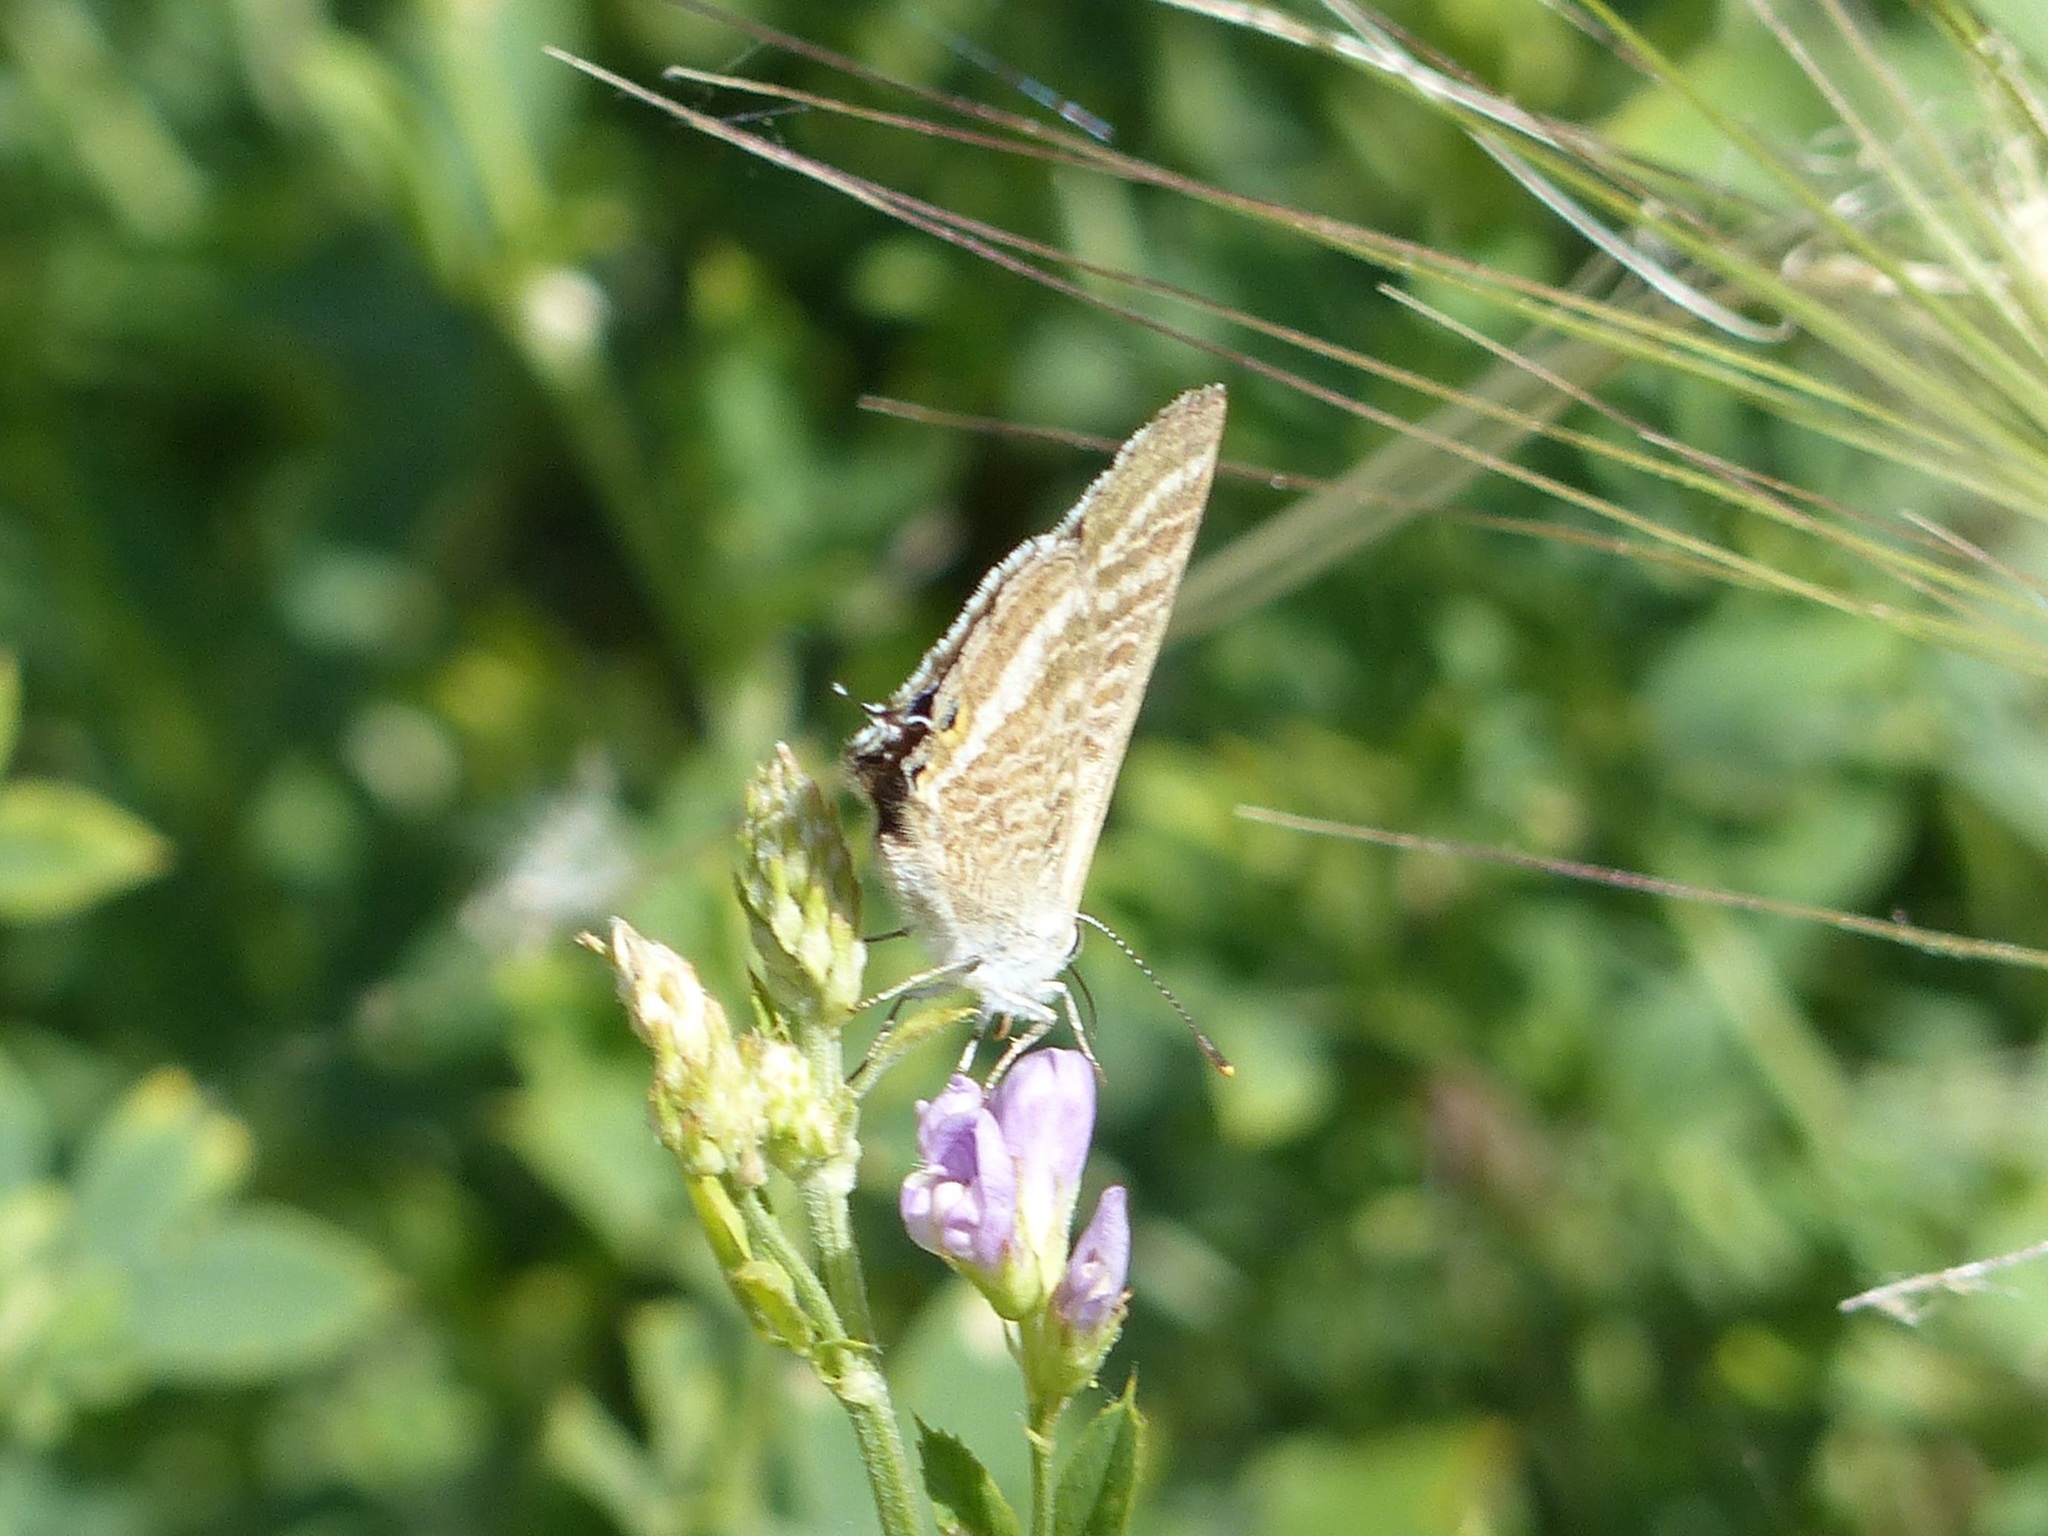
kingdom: Animalia
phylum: Arthropoda
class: Insecta
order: Lepidoptera
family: Lycaenidae
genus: Lampides
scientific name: Lampides boeticus
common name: Long-tailed blue
